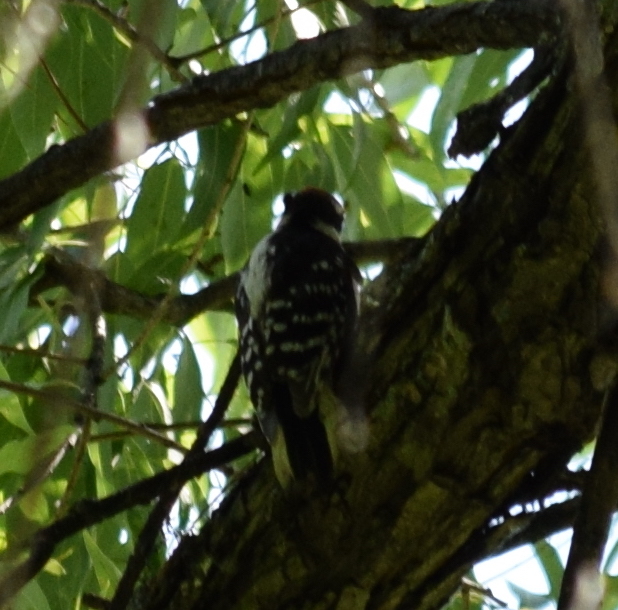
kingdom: Animalia
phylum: Chordata
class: Aves
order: Piciformes
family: Picidae
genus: Dryobates
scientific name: Dryobates pubescens
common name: Downy woodpecker
